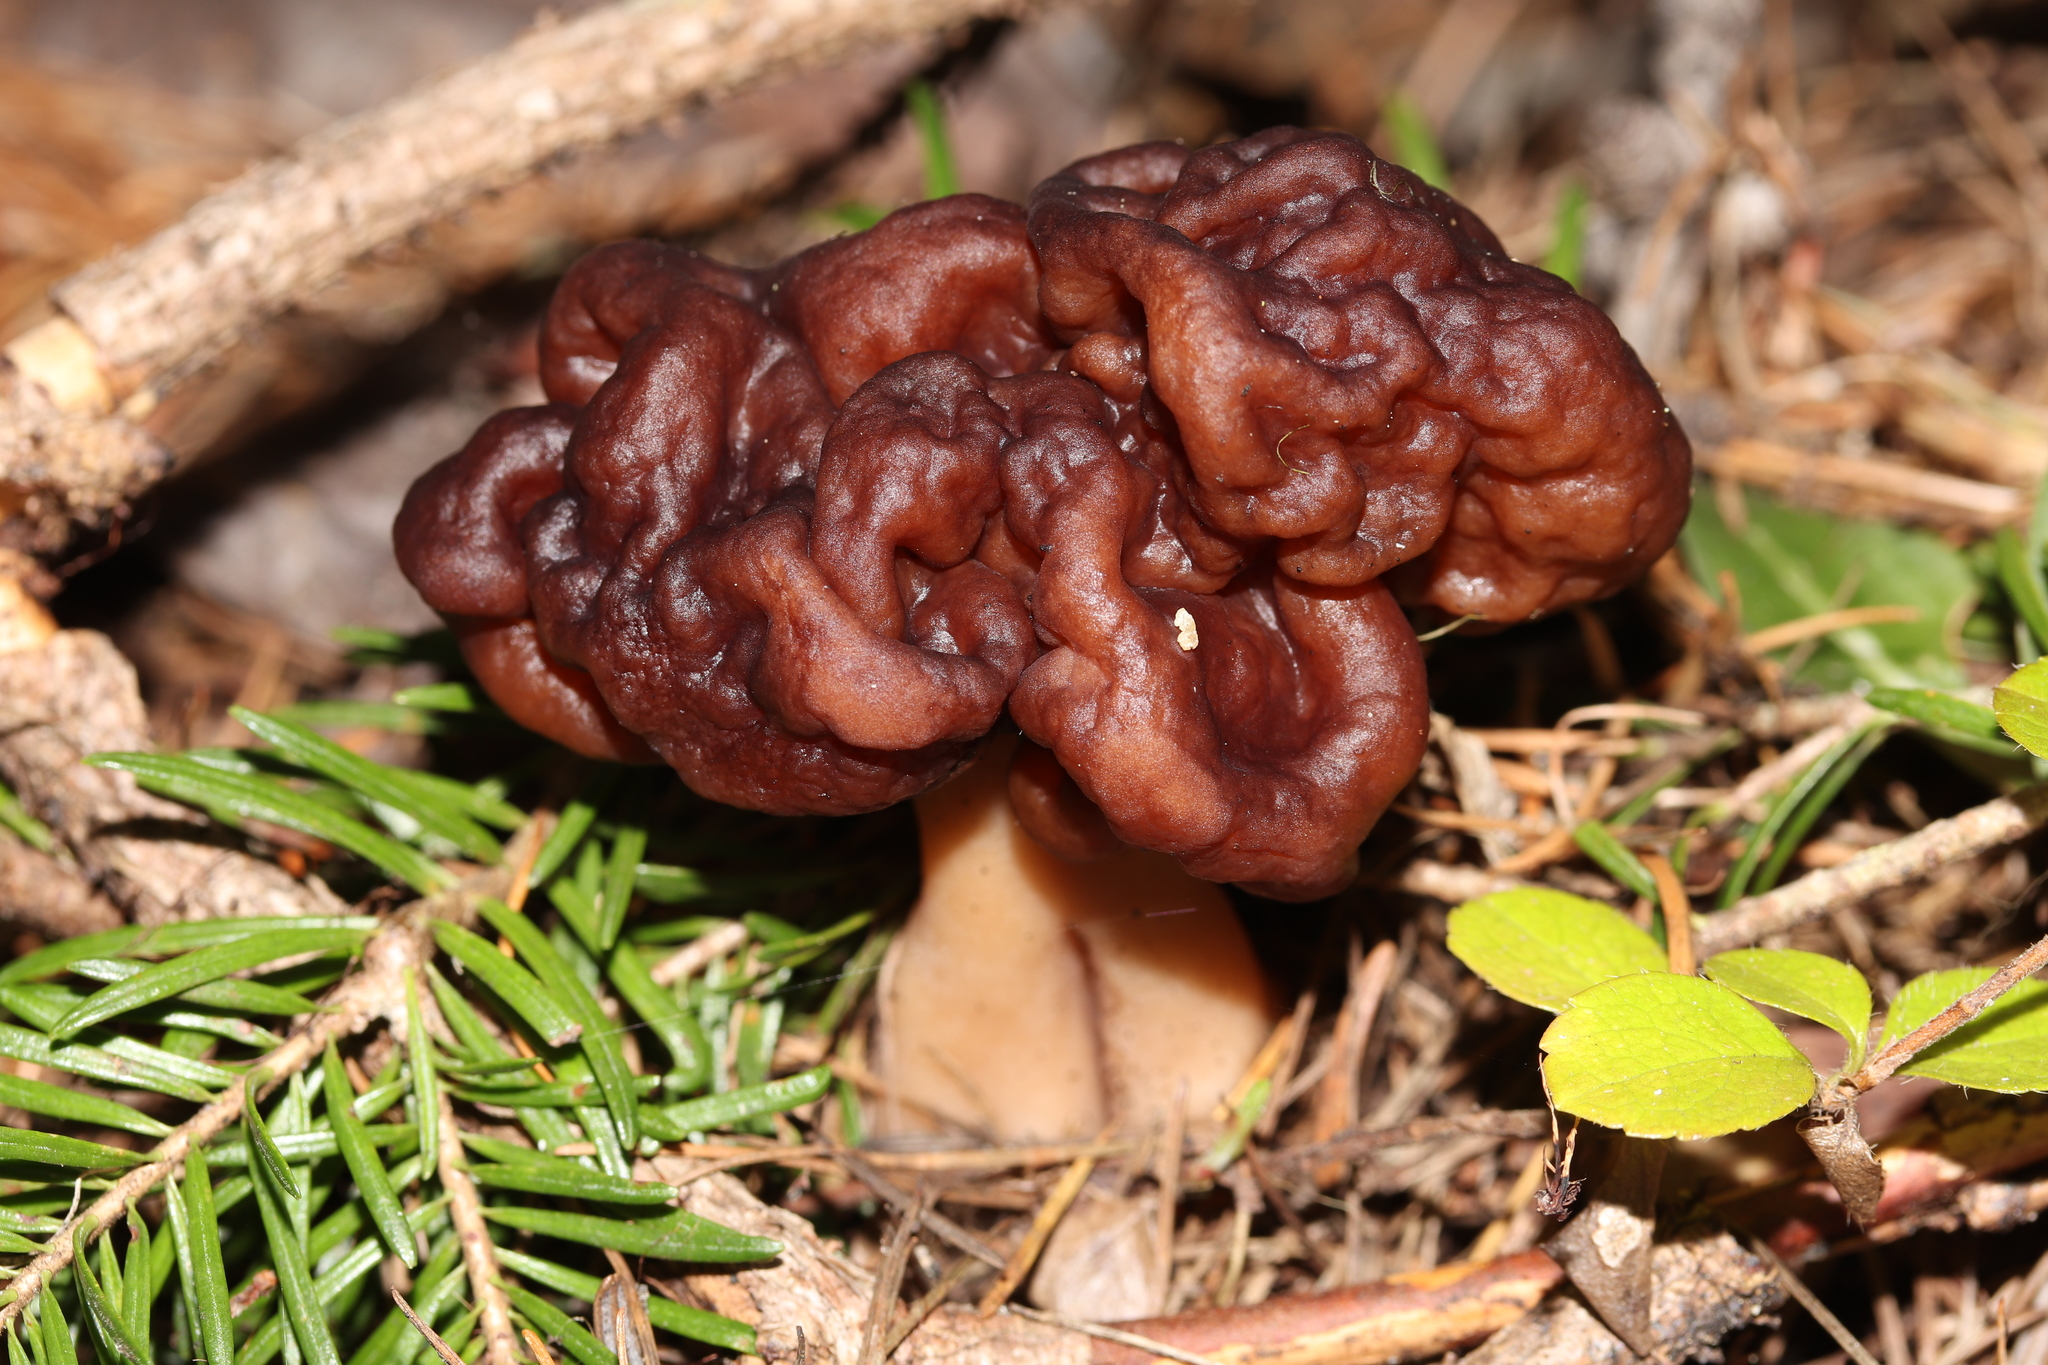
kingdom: Fungi
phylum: Ascomycota
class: Pezizomycetes
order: Pezizales
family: Discinaceae
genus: Gyromitra
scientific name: Gyromitra esculenta
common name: False morel
